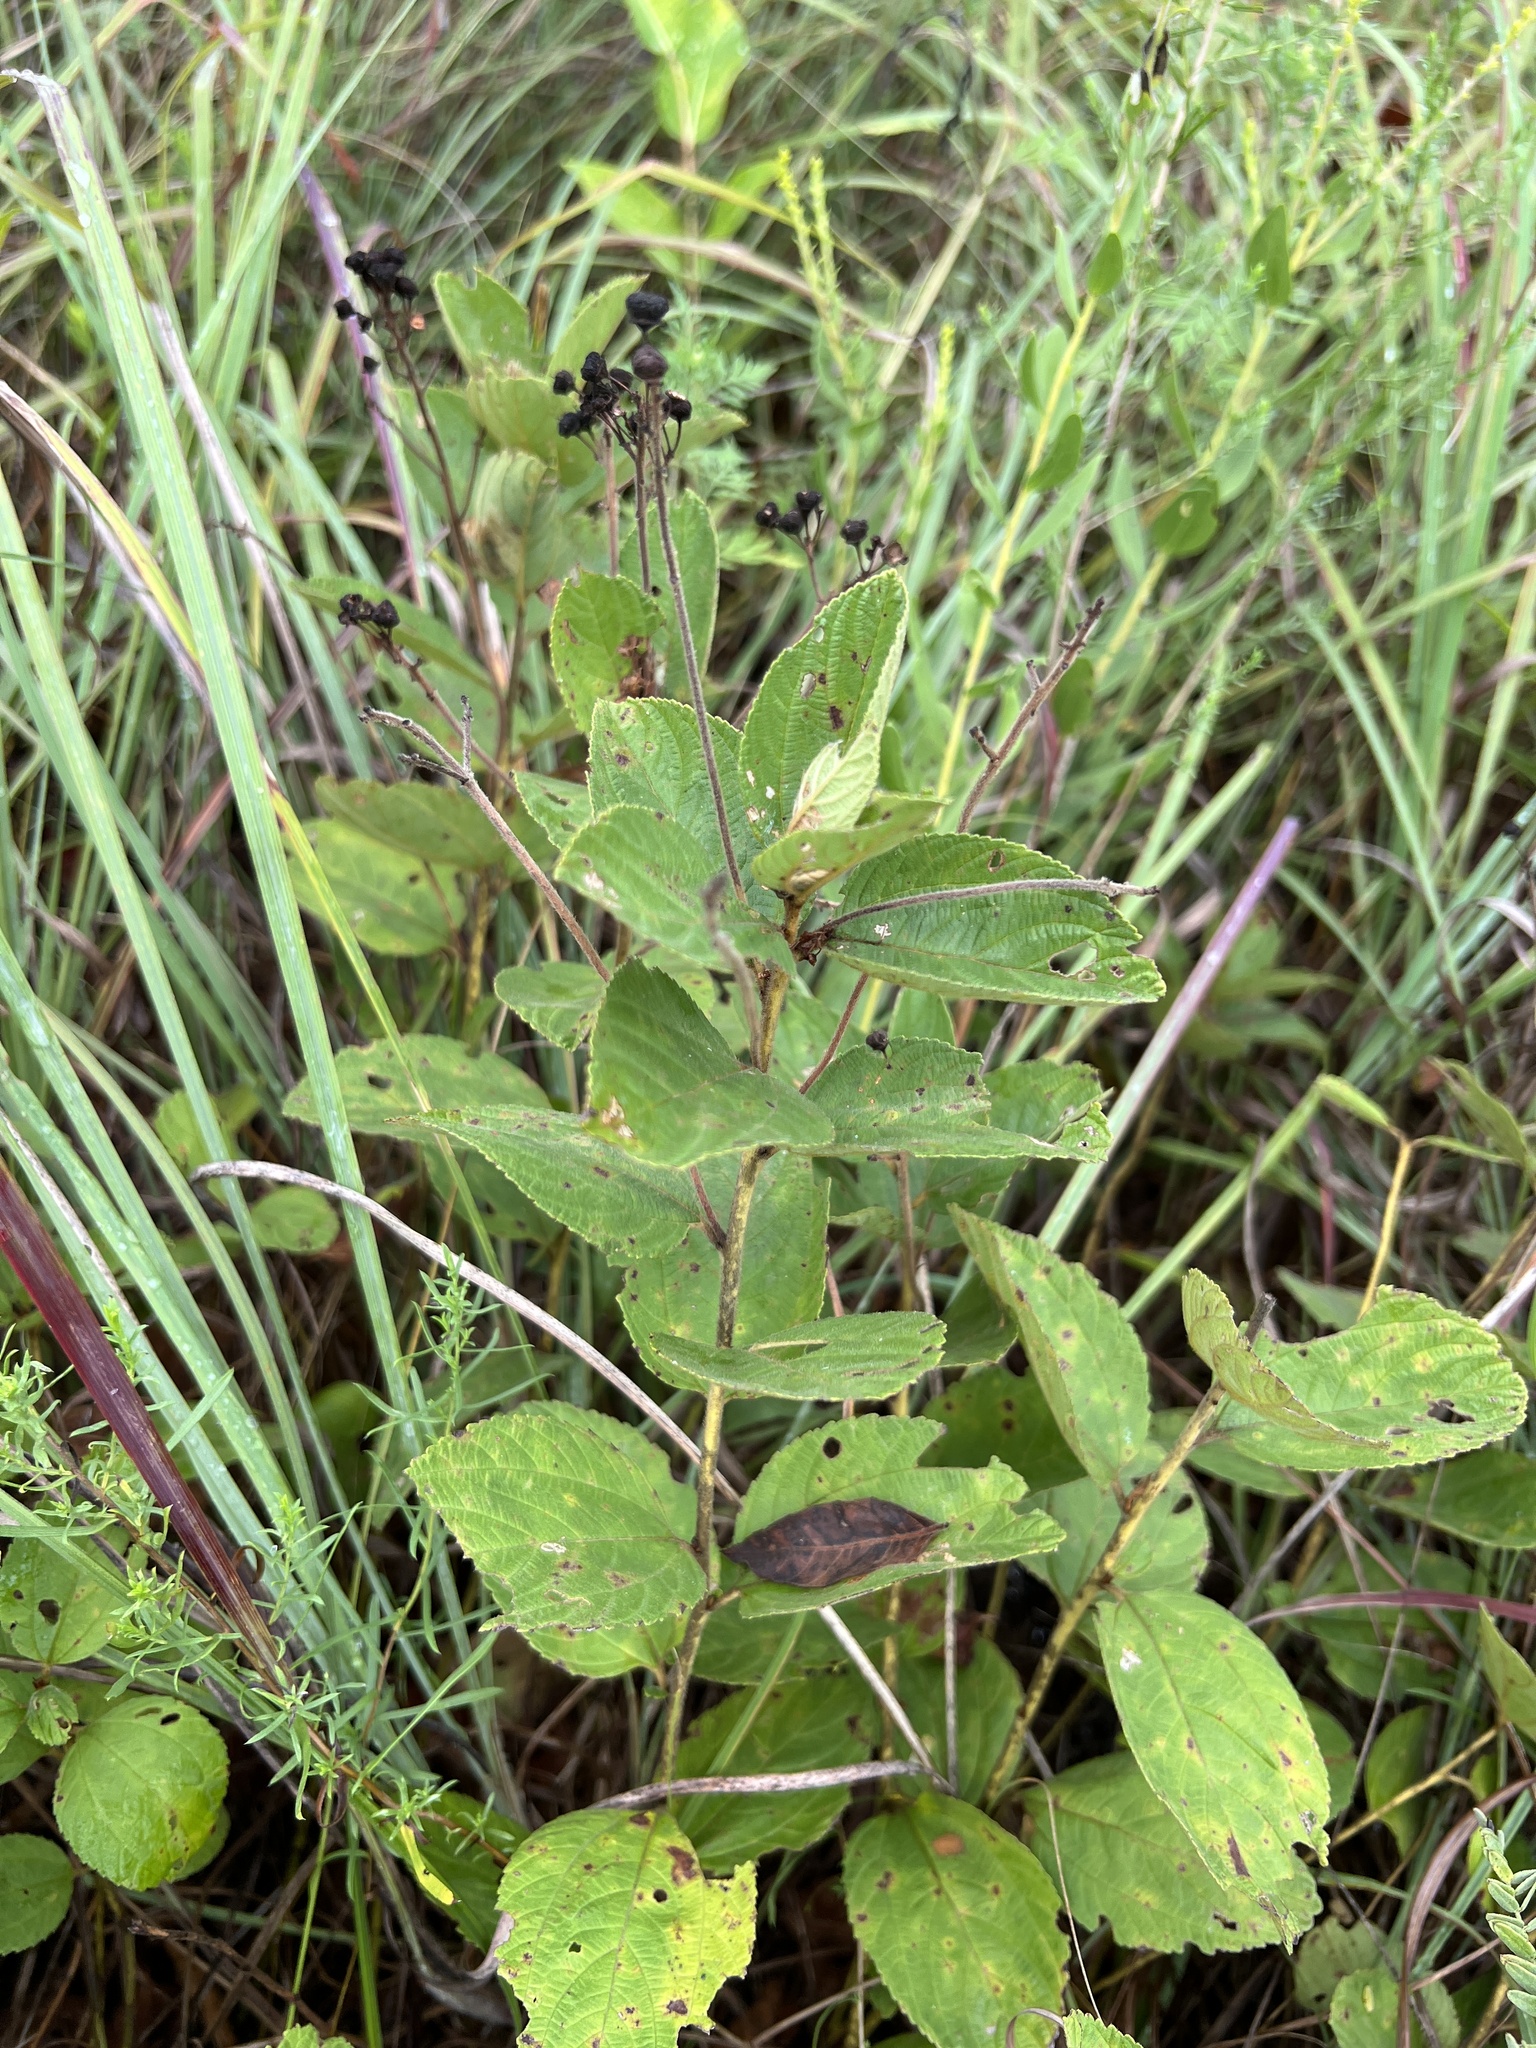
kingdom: Plantae
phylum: Tracheophyta
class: Magnoliopsida
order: Rosales
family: Rhamnaceae
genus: Ceanothus
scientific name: Ceanothus americanus
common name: Redroot
